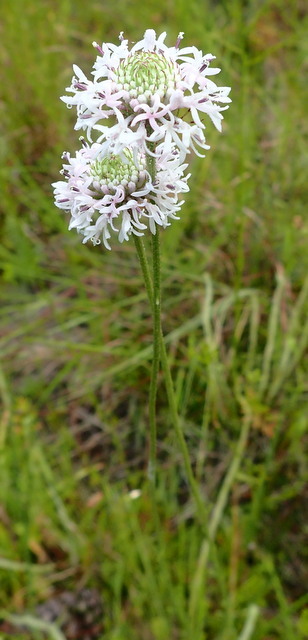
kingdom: Plantae
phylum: Tracheophyta
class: Magnoliopsida
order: Asterales
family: Asteraceae
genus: Marshallia
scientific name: Marshallia graminifolia
